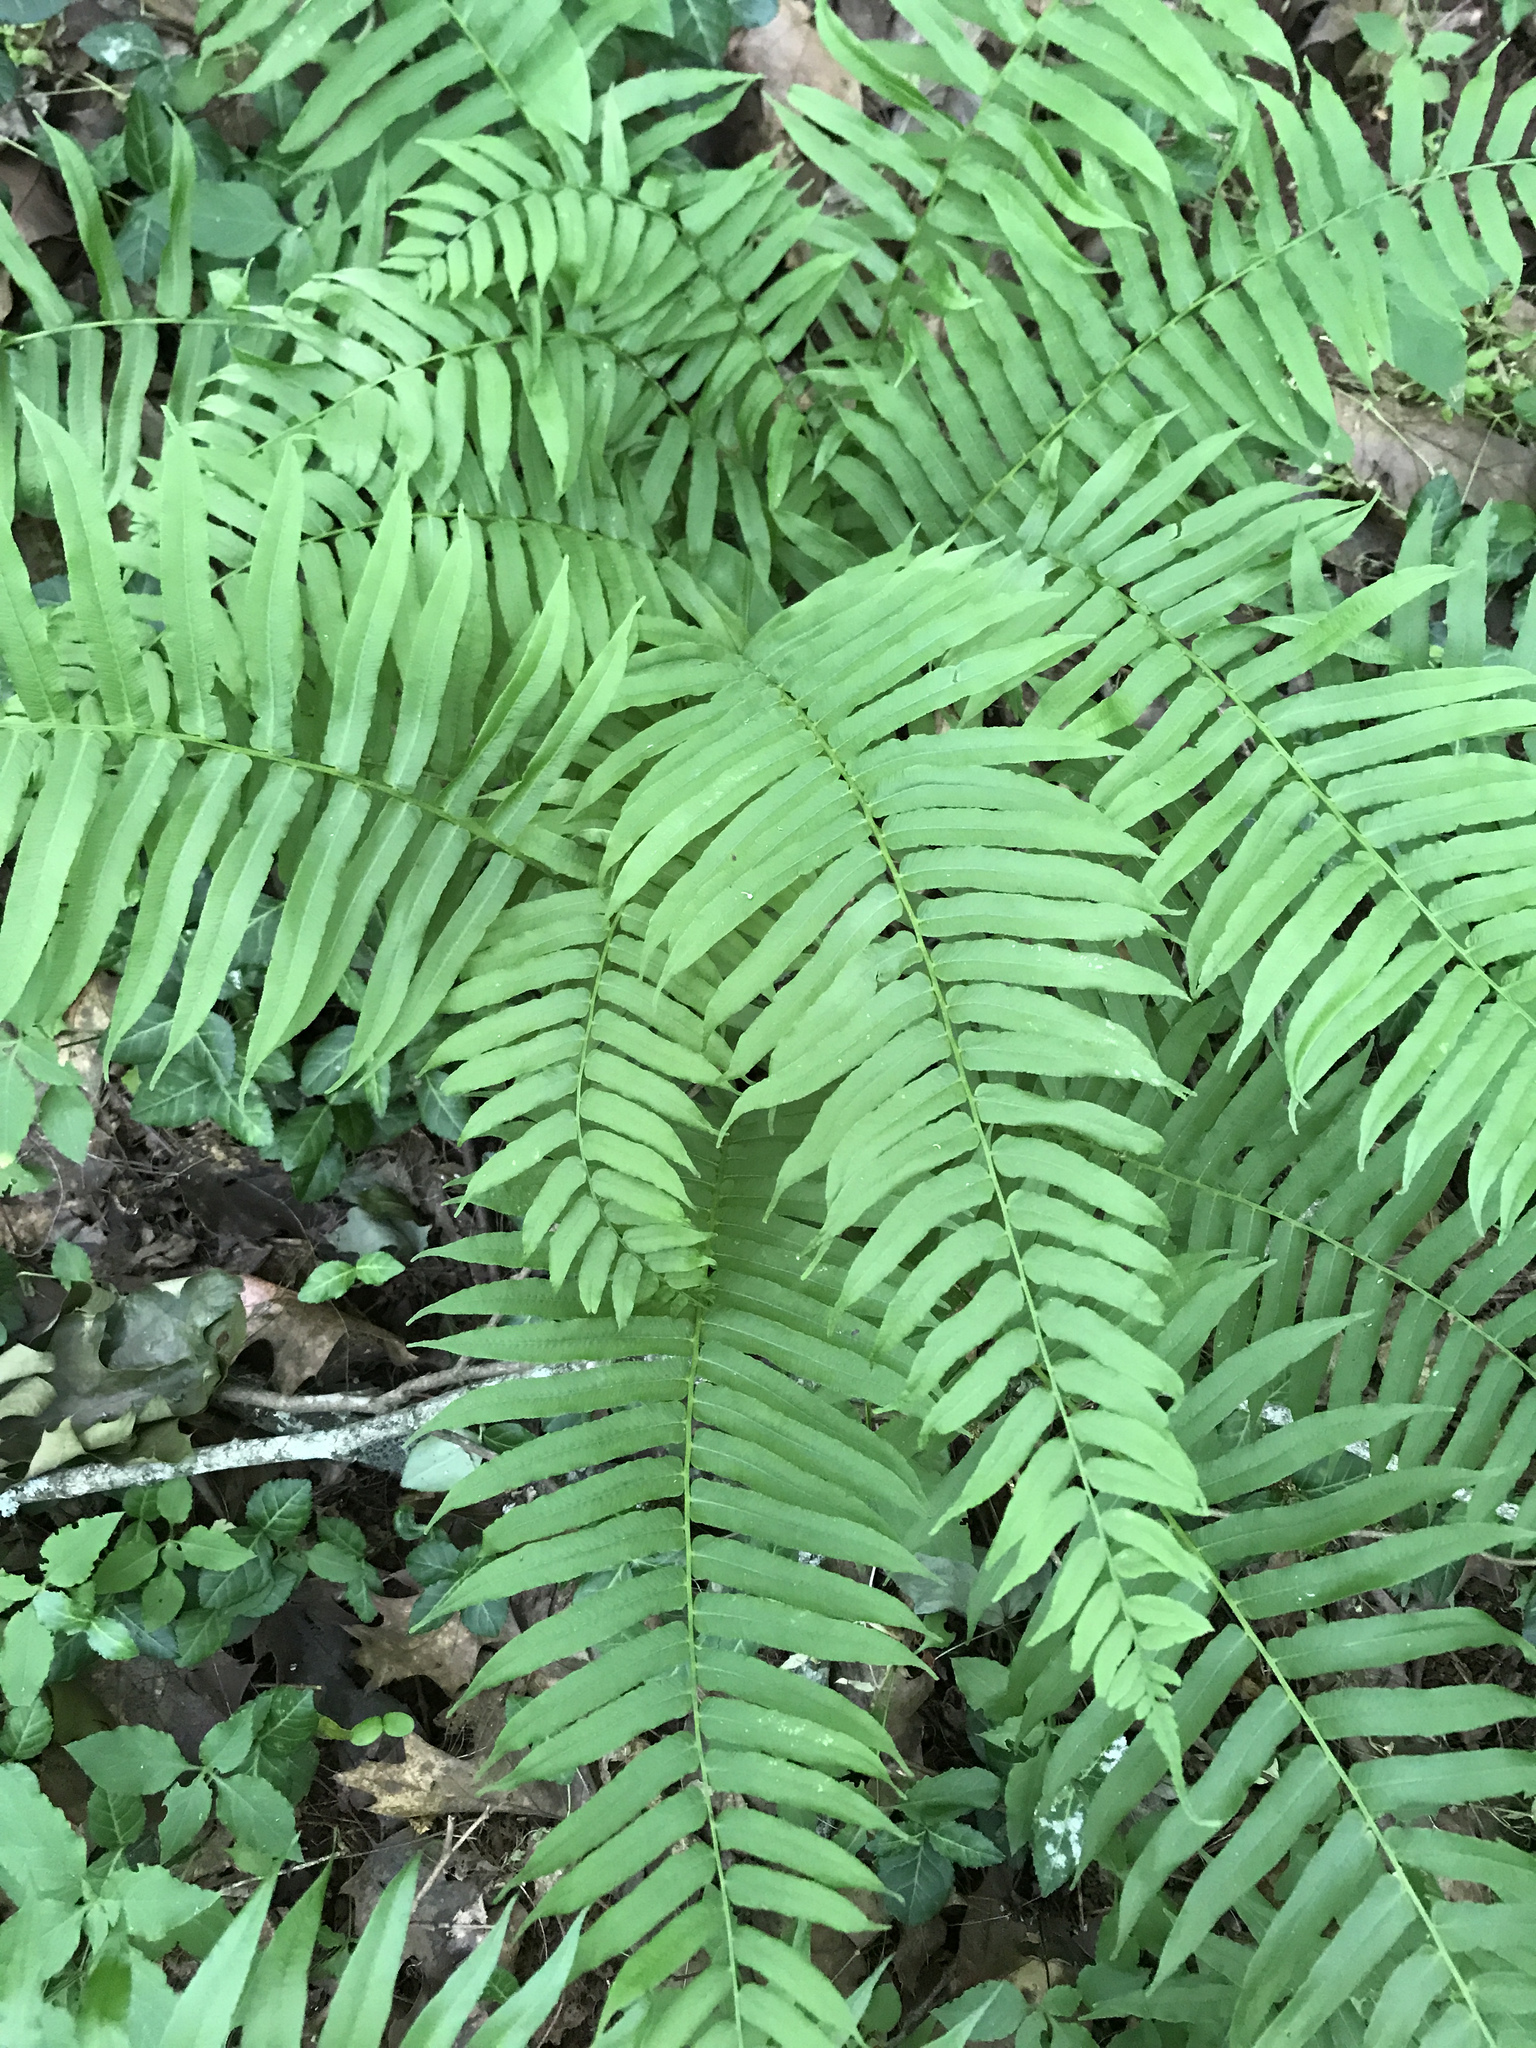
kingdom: Plantae
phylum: Tracheophyta
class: Polypodiopsida
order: Polypodiales
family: Diplaziopsidaceae
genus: Homalosorus
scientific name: Homalosorus pycnocarpos
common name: Glade fern
